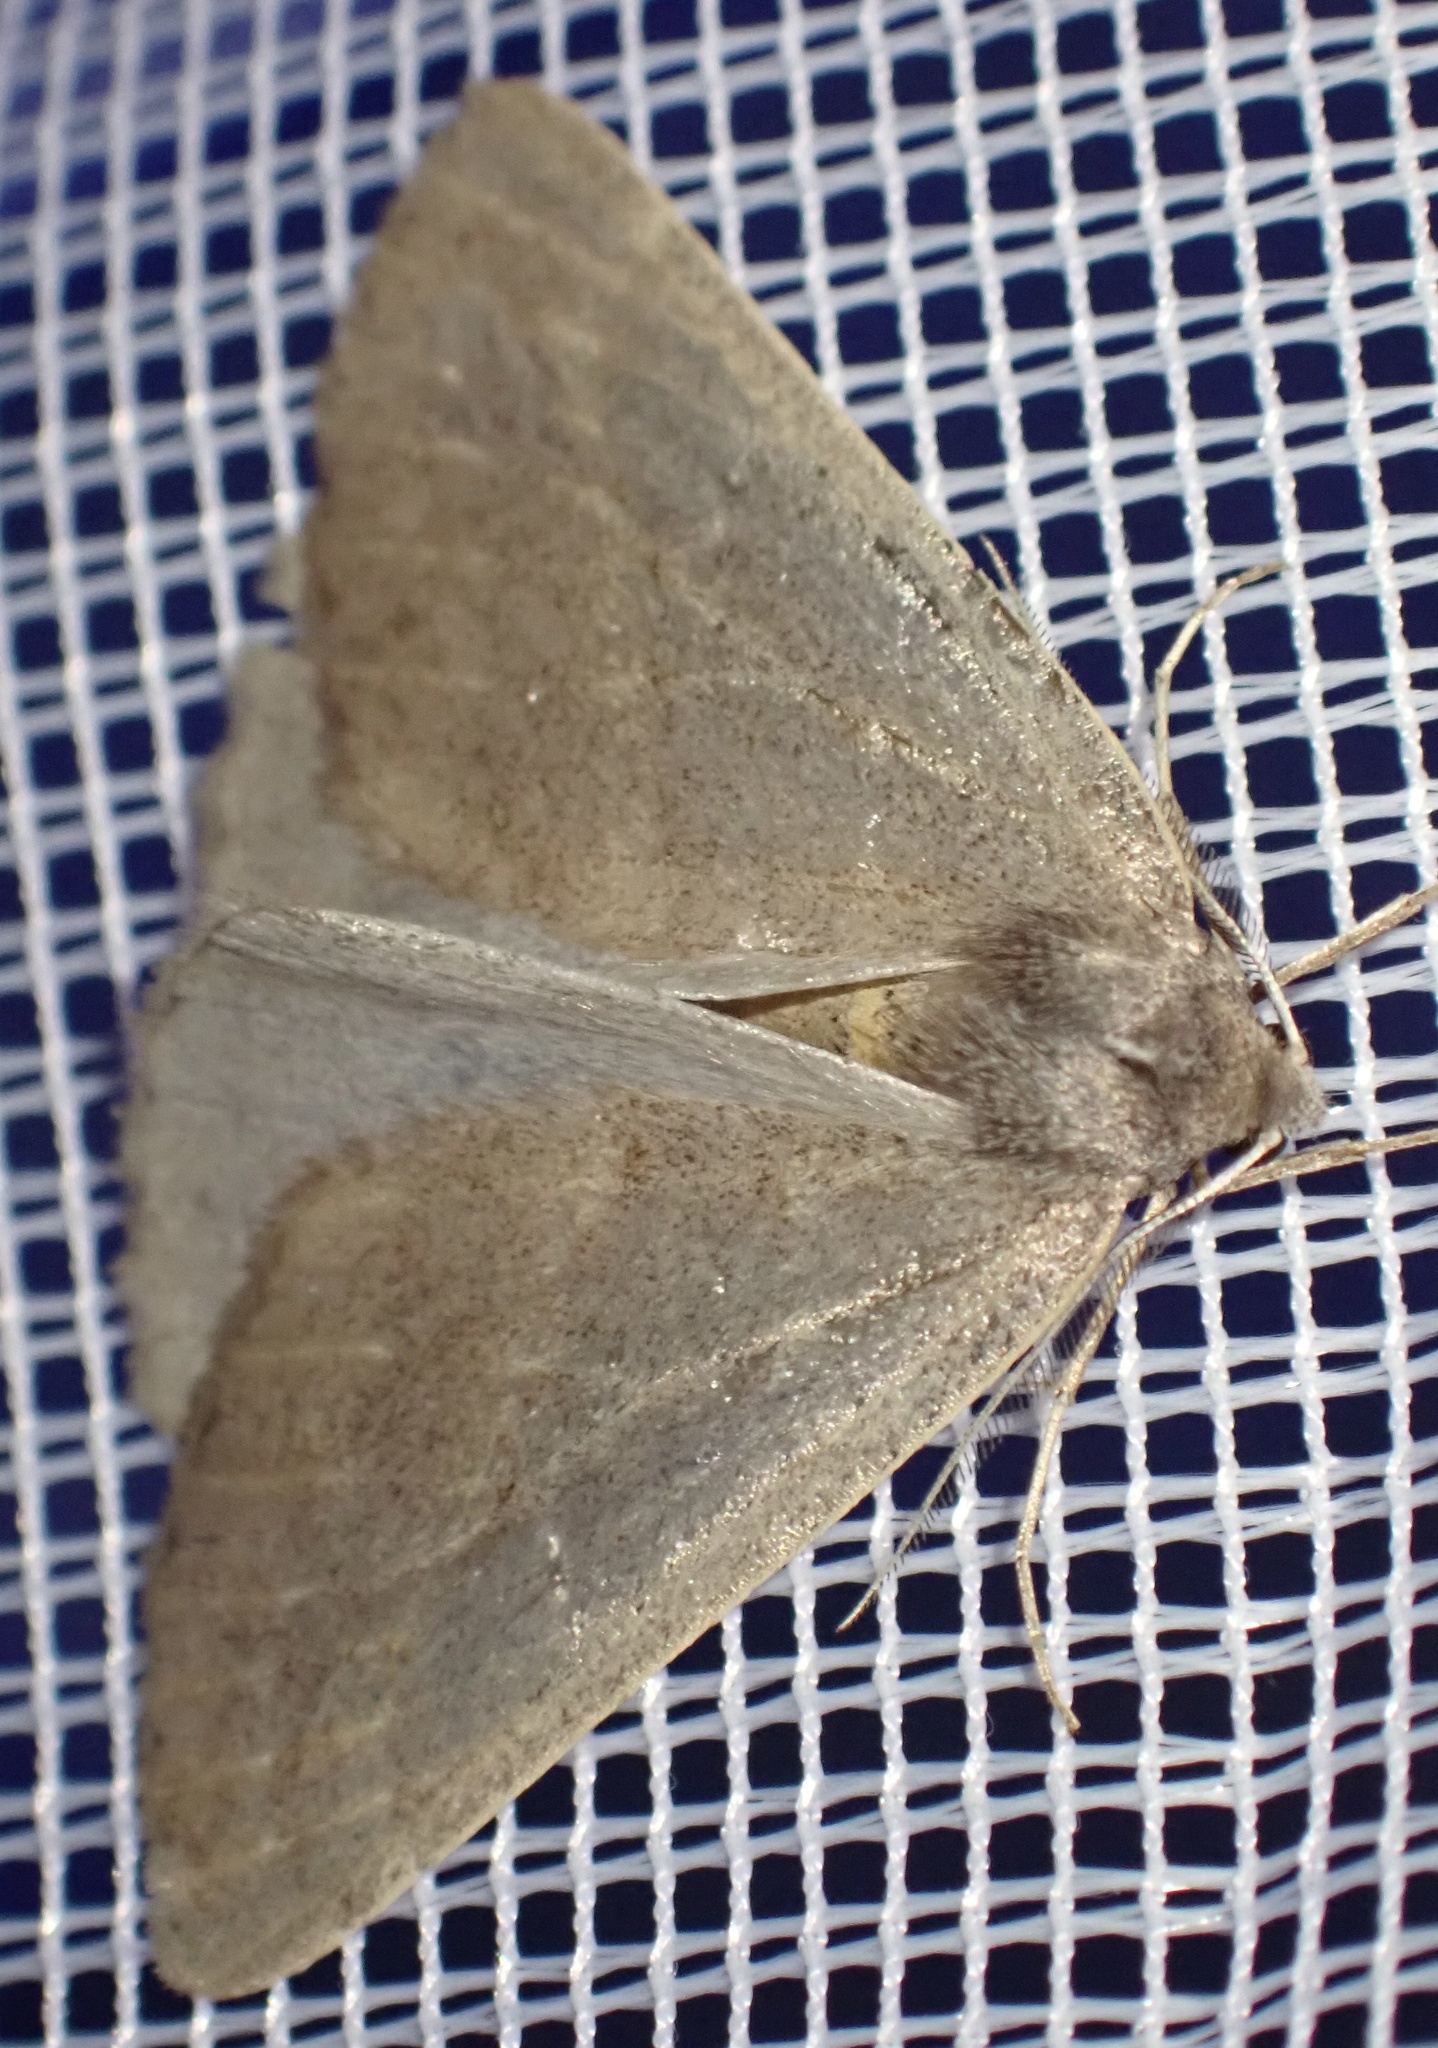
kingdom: Animalia
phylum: Arthropoda
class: Insecta
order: Lepidoptera
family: Geometridae
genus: Chemerina
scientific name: Chemerina caliginearia
